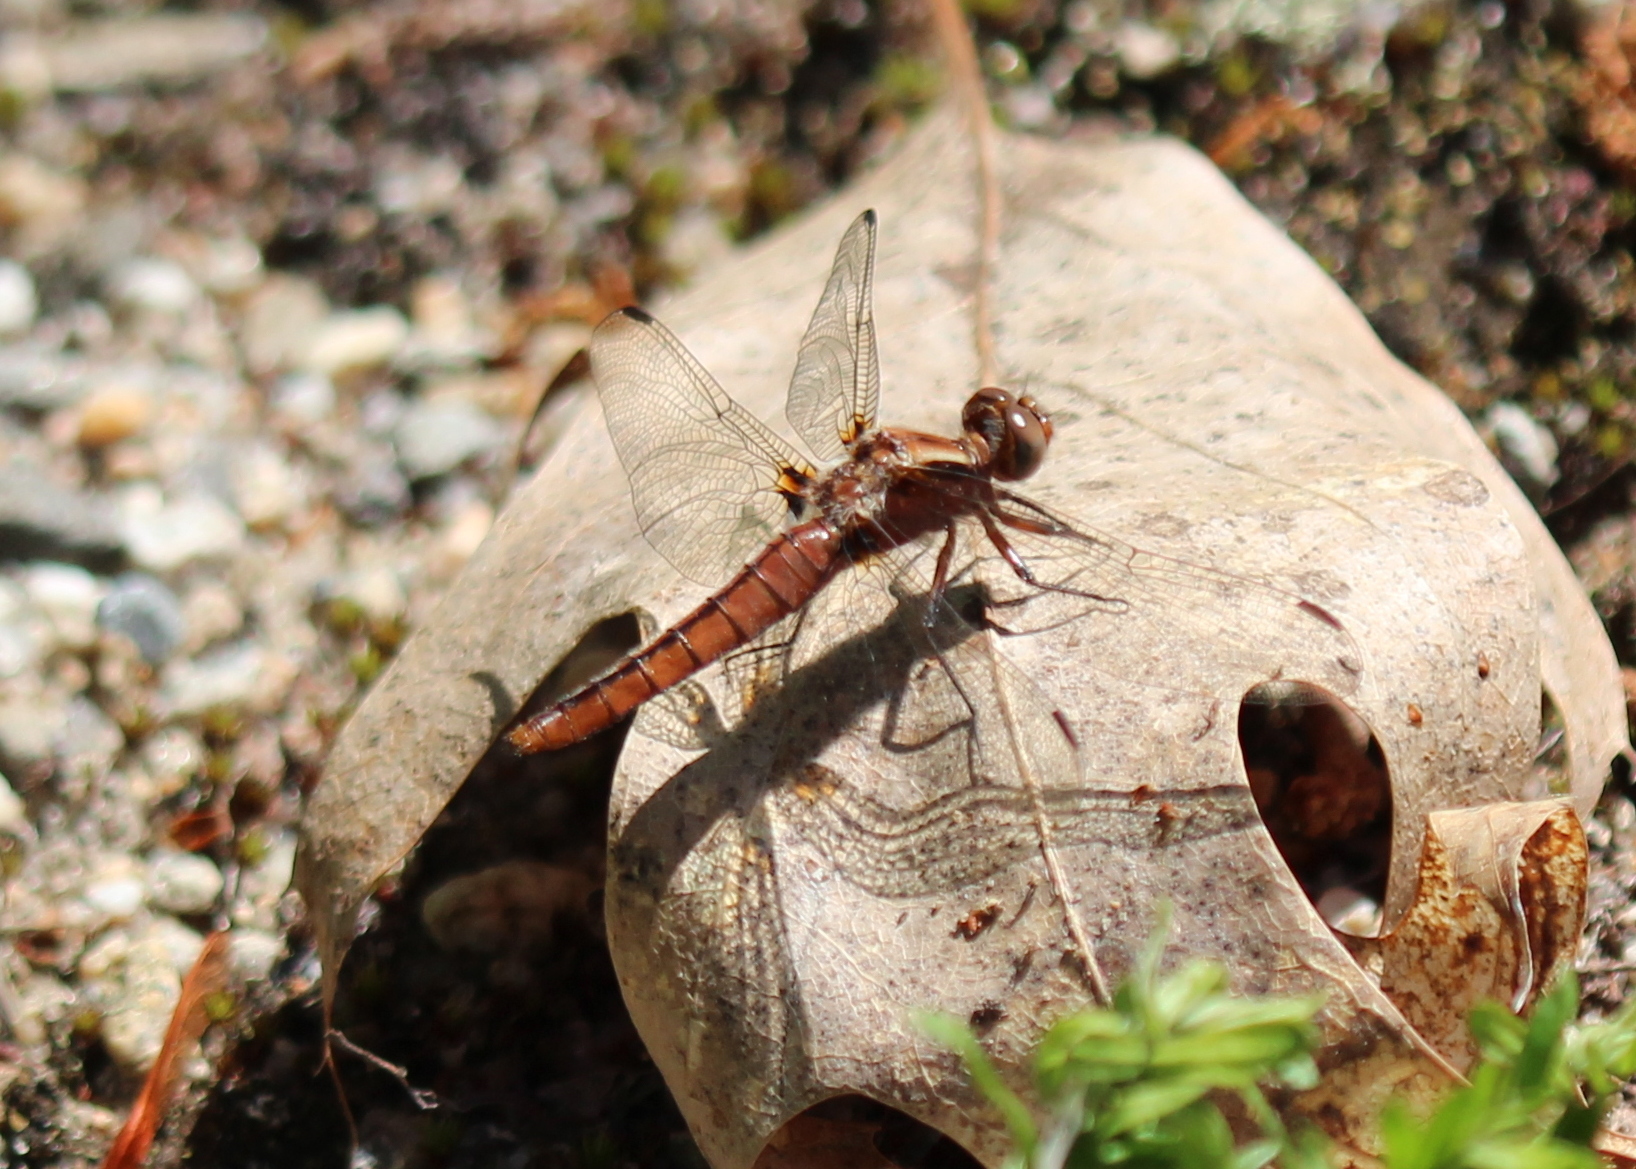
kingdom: Animalia
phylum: Arthropoda
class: Insecta
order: Odonata
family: Libellulidae
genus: Ladona
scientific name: Ladona julia
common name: Chalk-fronted corporal
